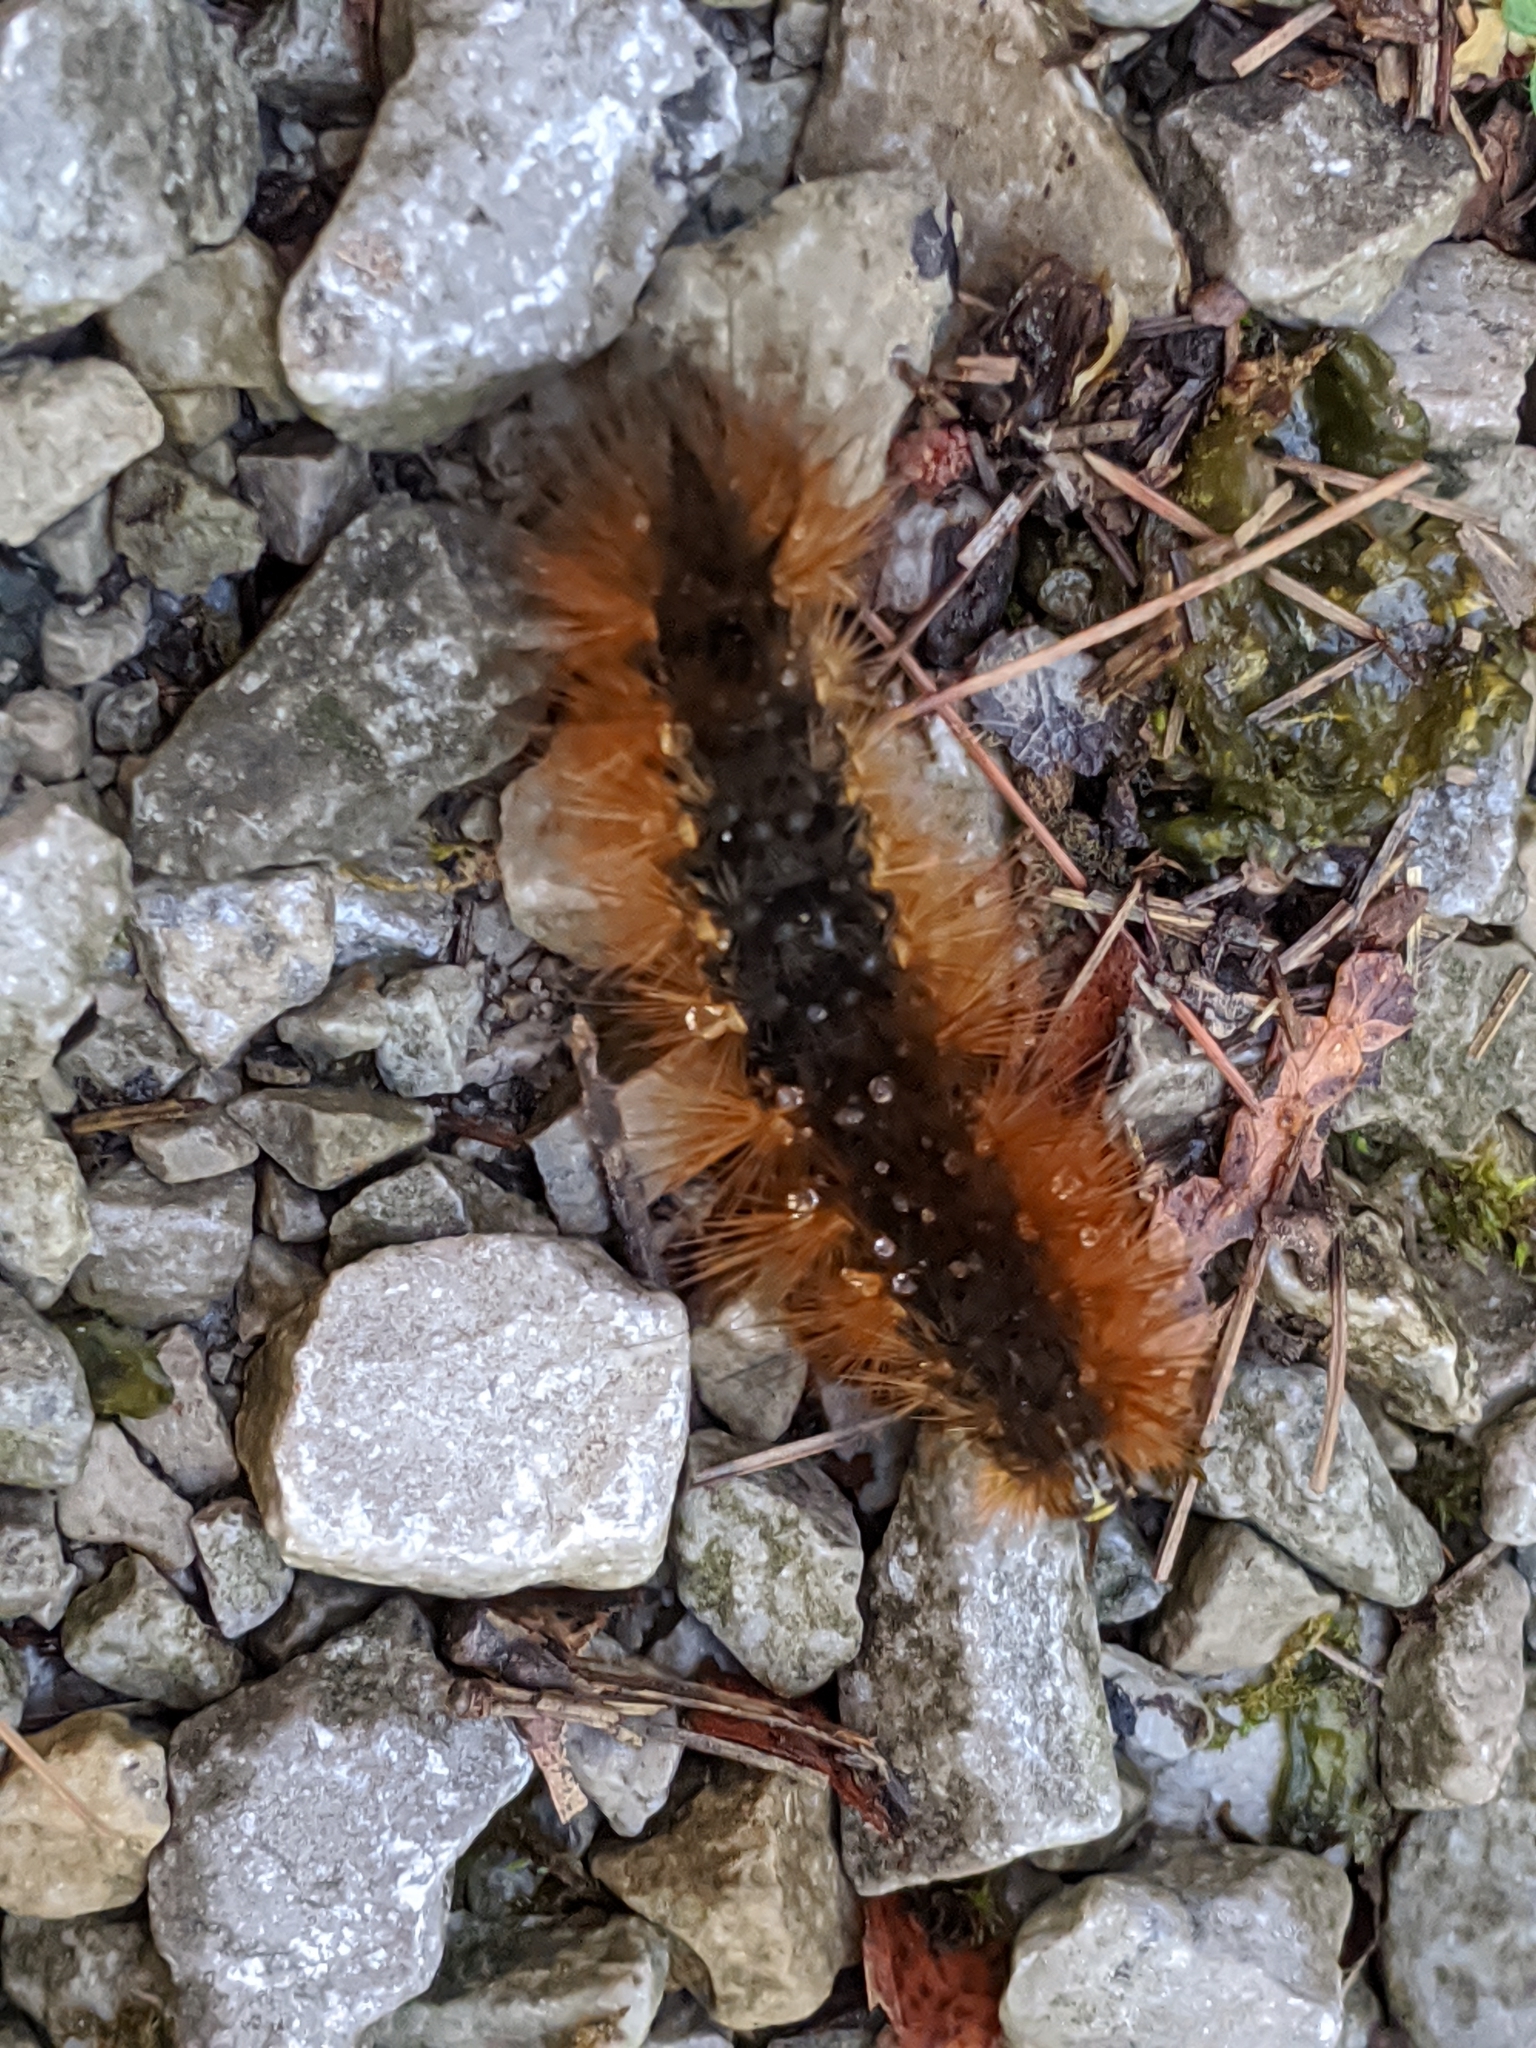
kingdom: Animalia
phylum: Arthropoda
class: Insecta
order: Lepidoptera
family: Erebidae
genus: Estigmene
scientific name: Estigmene acrea
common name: Salt marsh moth
